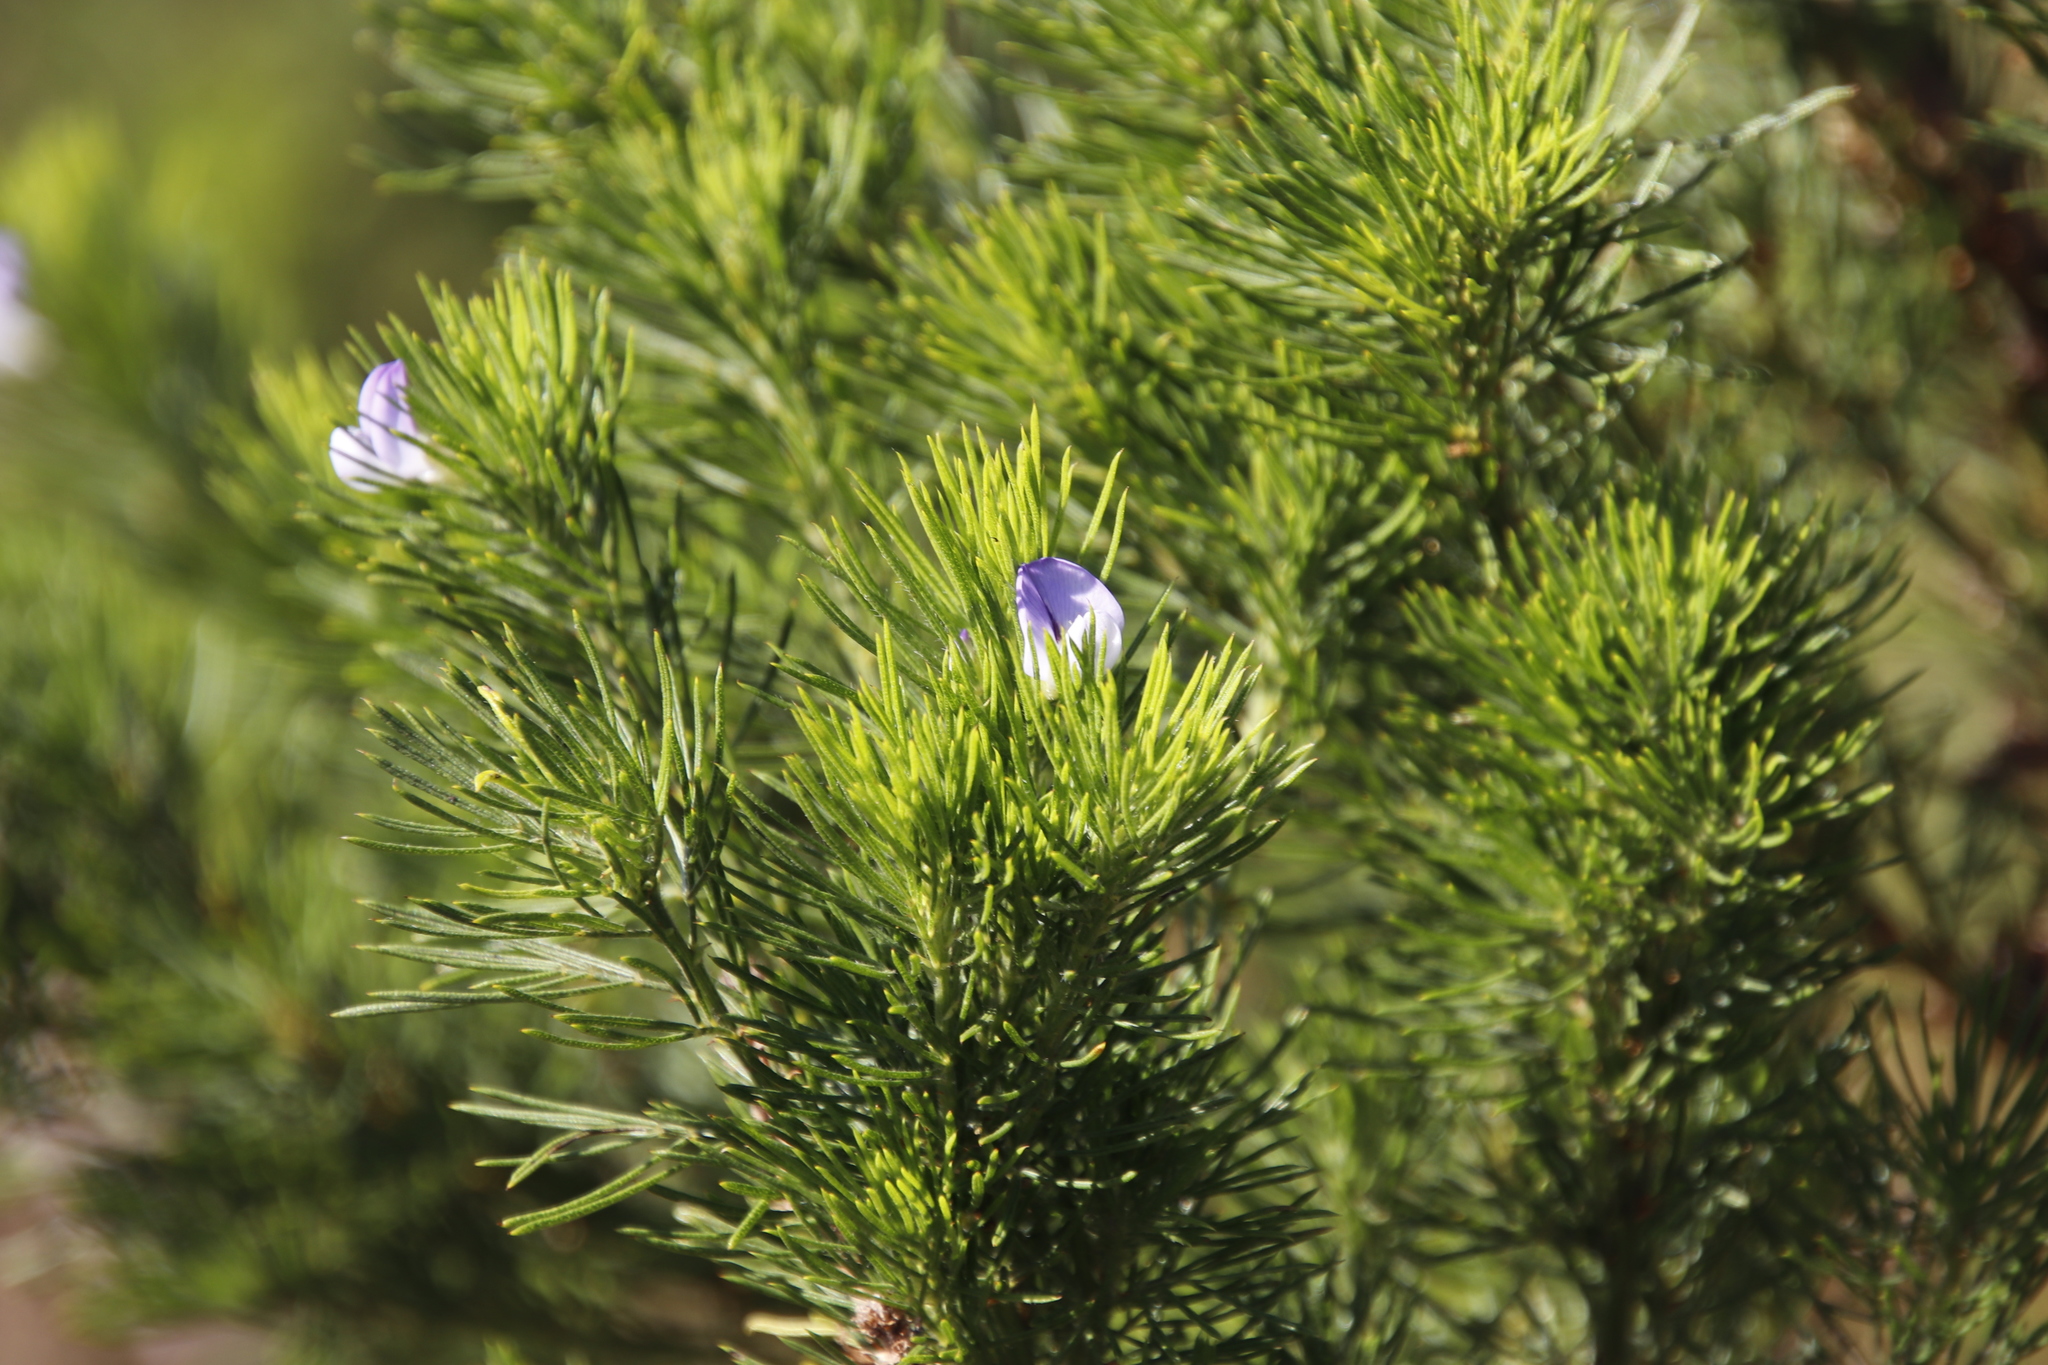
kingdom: Plantae
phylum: Tracheophyta
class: Magnoliopsida
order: Fabales
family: Fabaceae
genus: Psoralea
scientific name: Psoralea pinnata
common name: African scurfpea
